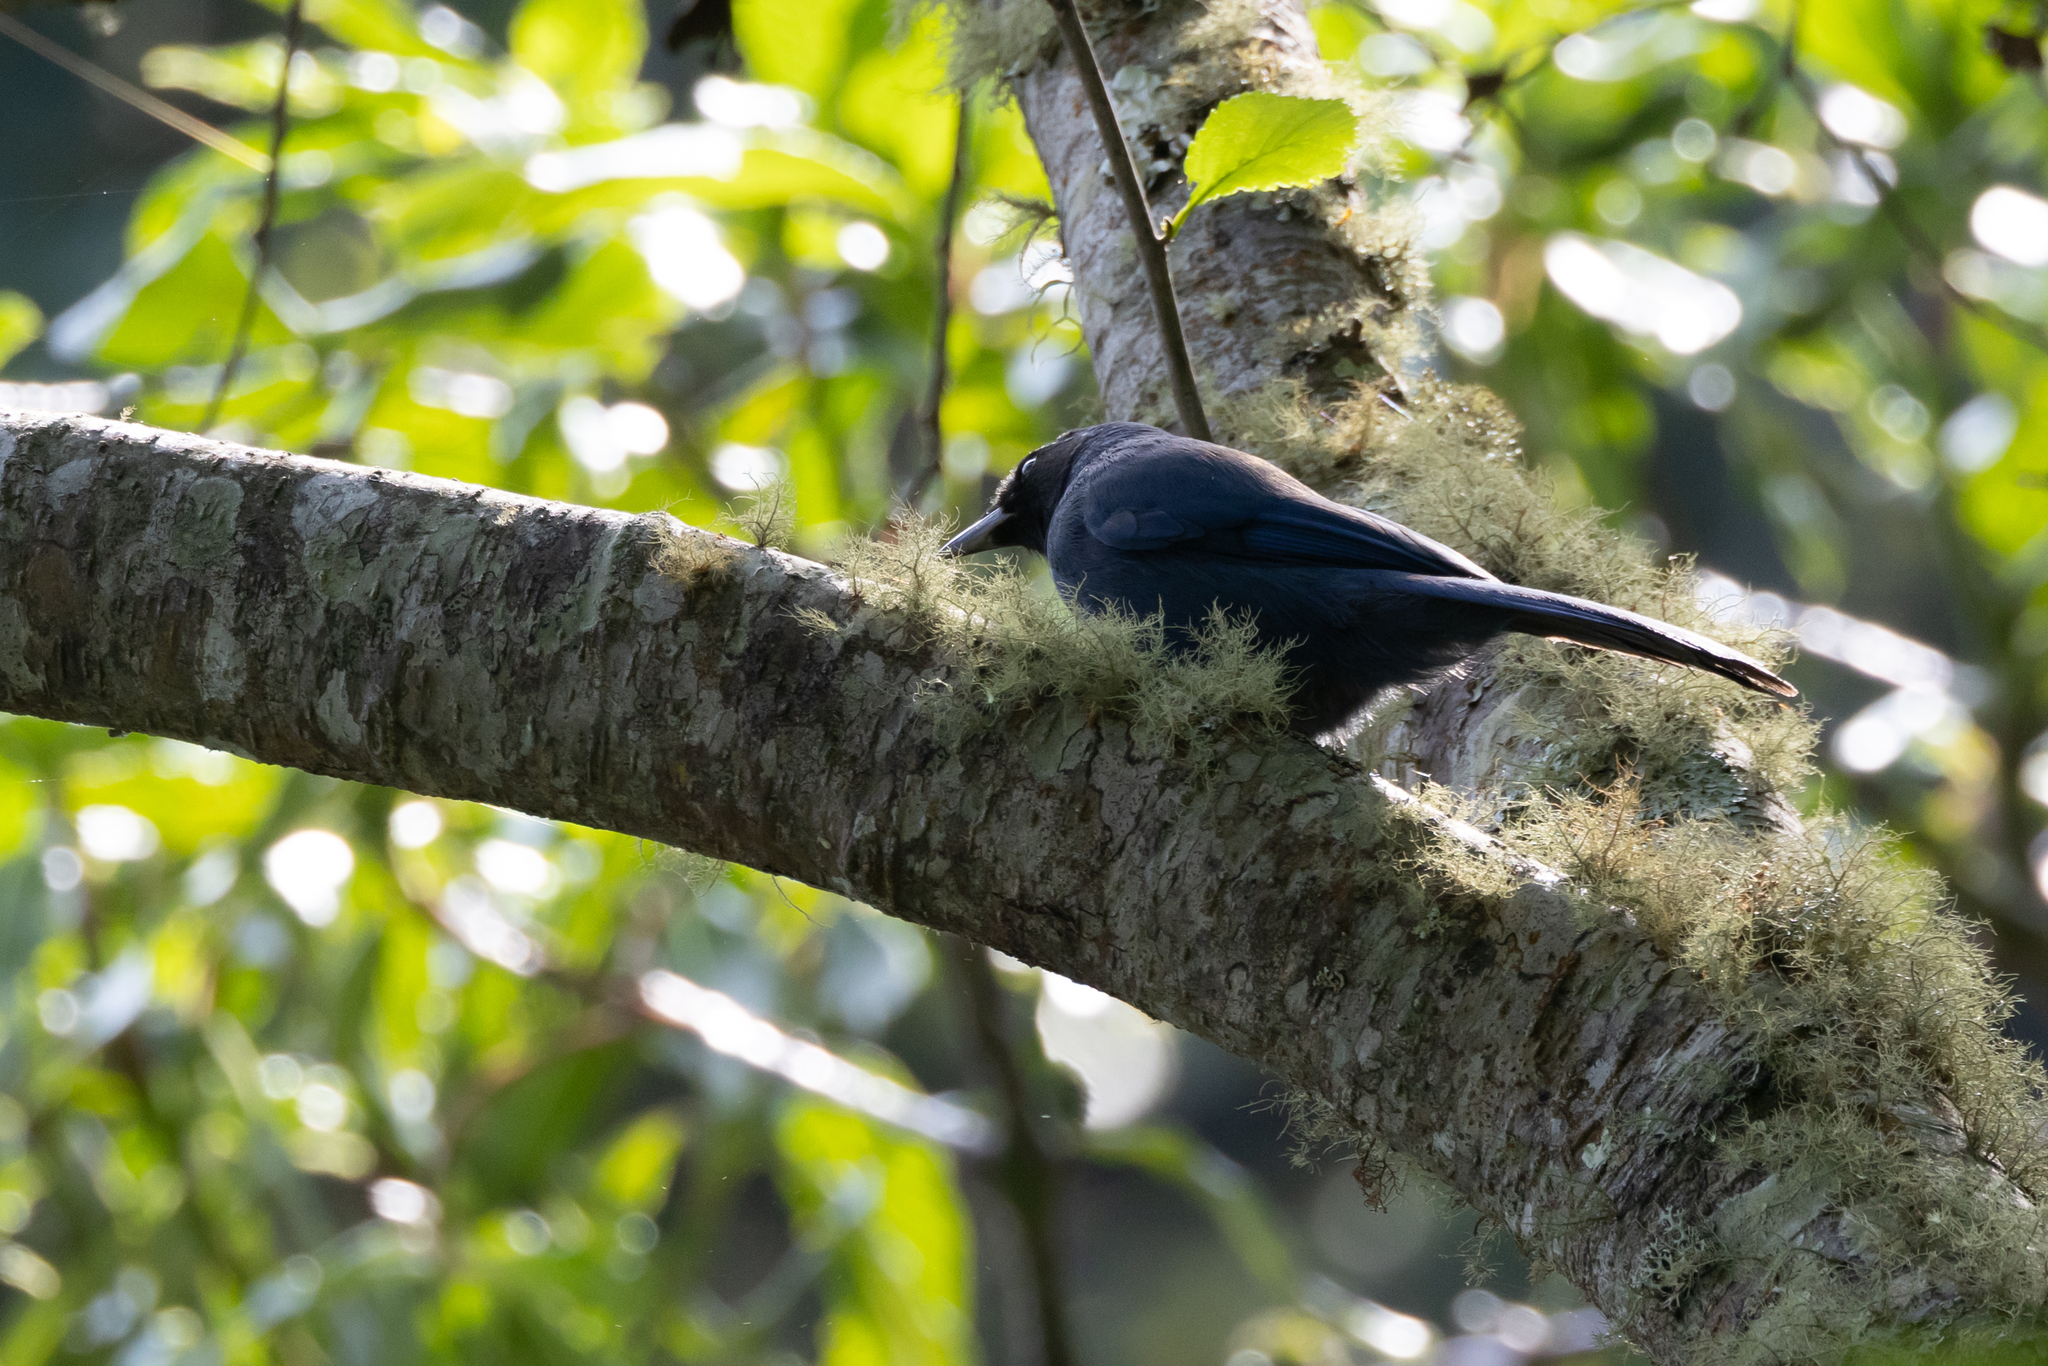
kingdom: Animalia
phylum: Chordata
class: Aves
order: Passeriformes
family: Corvidae
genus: Cyanolyca
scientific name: Cyanolyca pumilo
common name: Black-throated jay
